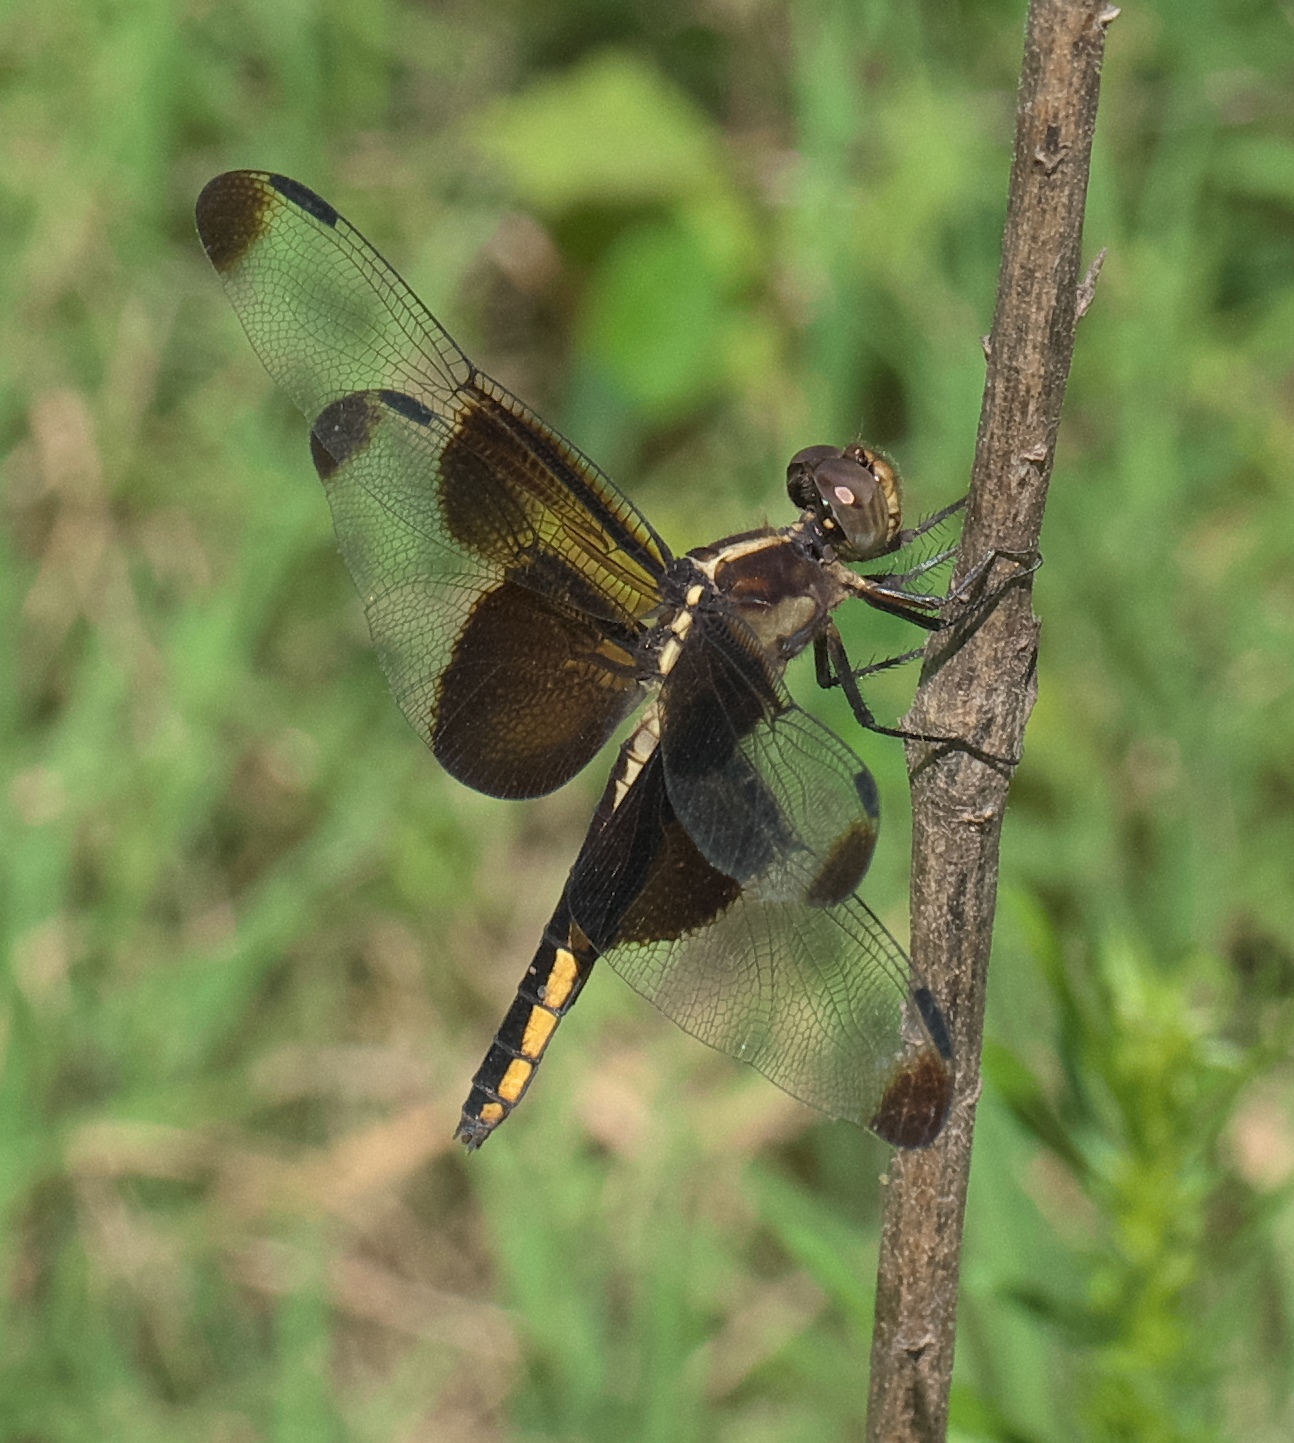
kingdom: Animalia
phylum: Arthropoda
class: Insecta
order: Odonata
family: Libellulidae
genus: Libellula
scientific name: Libellula luctuosa
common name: Widow skimmer
